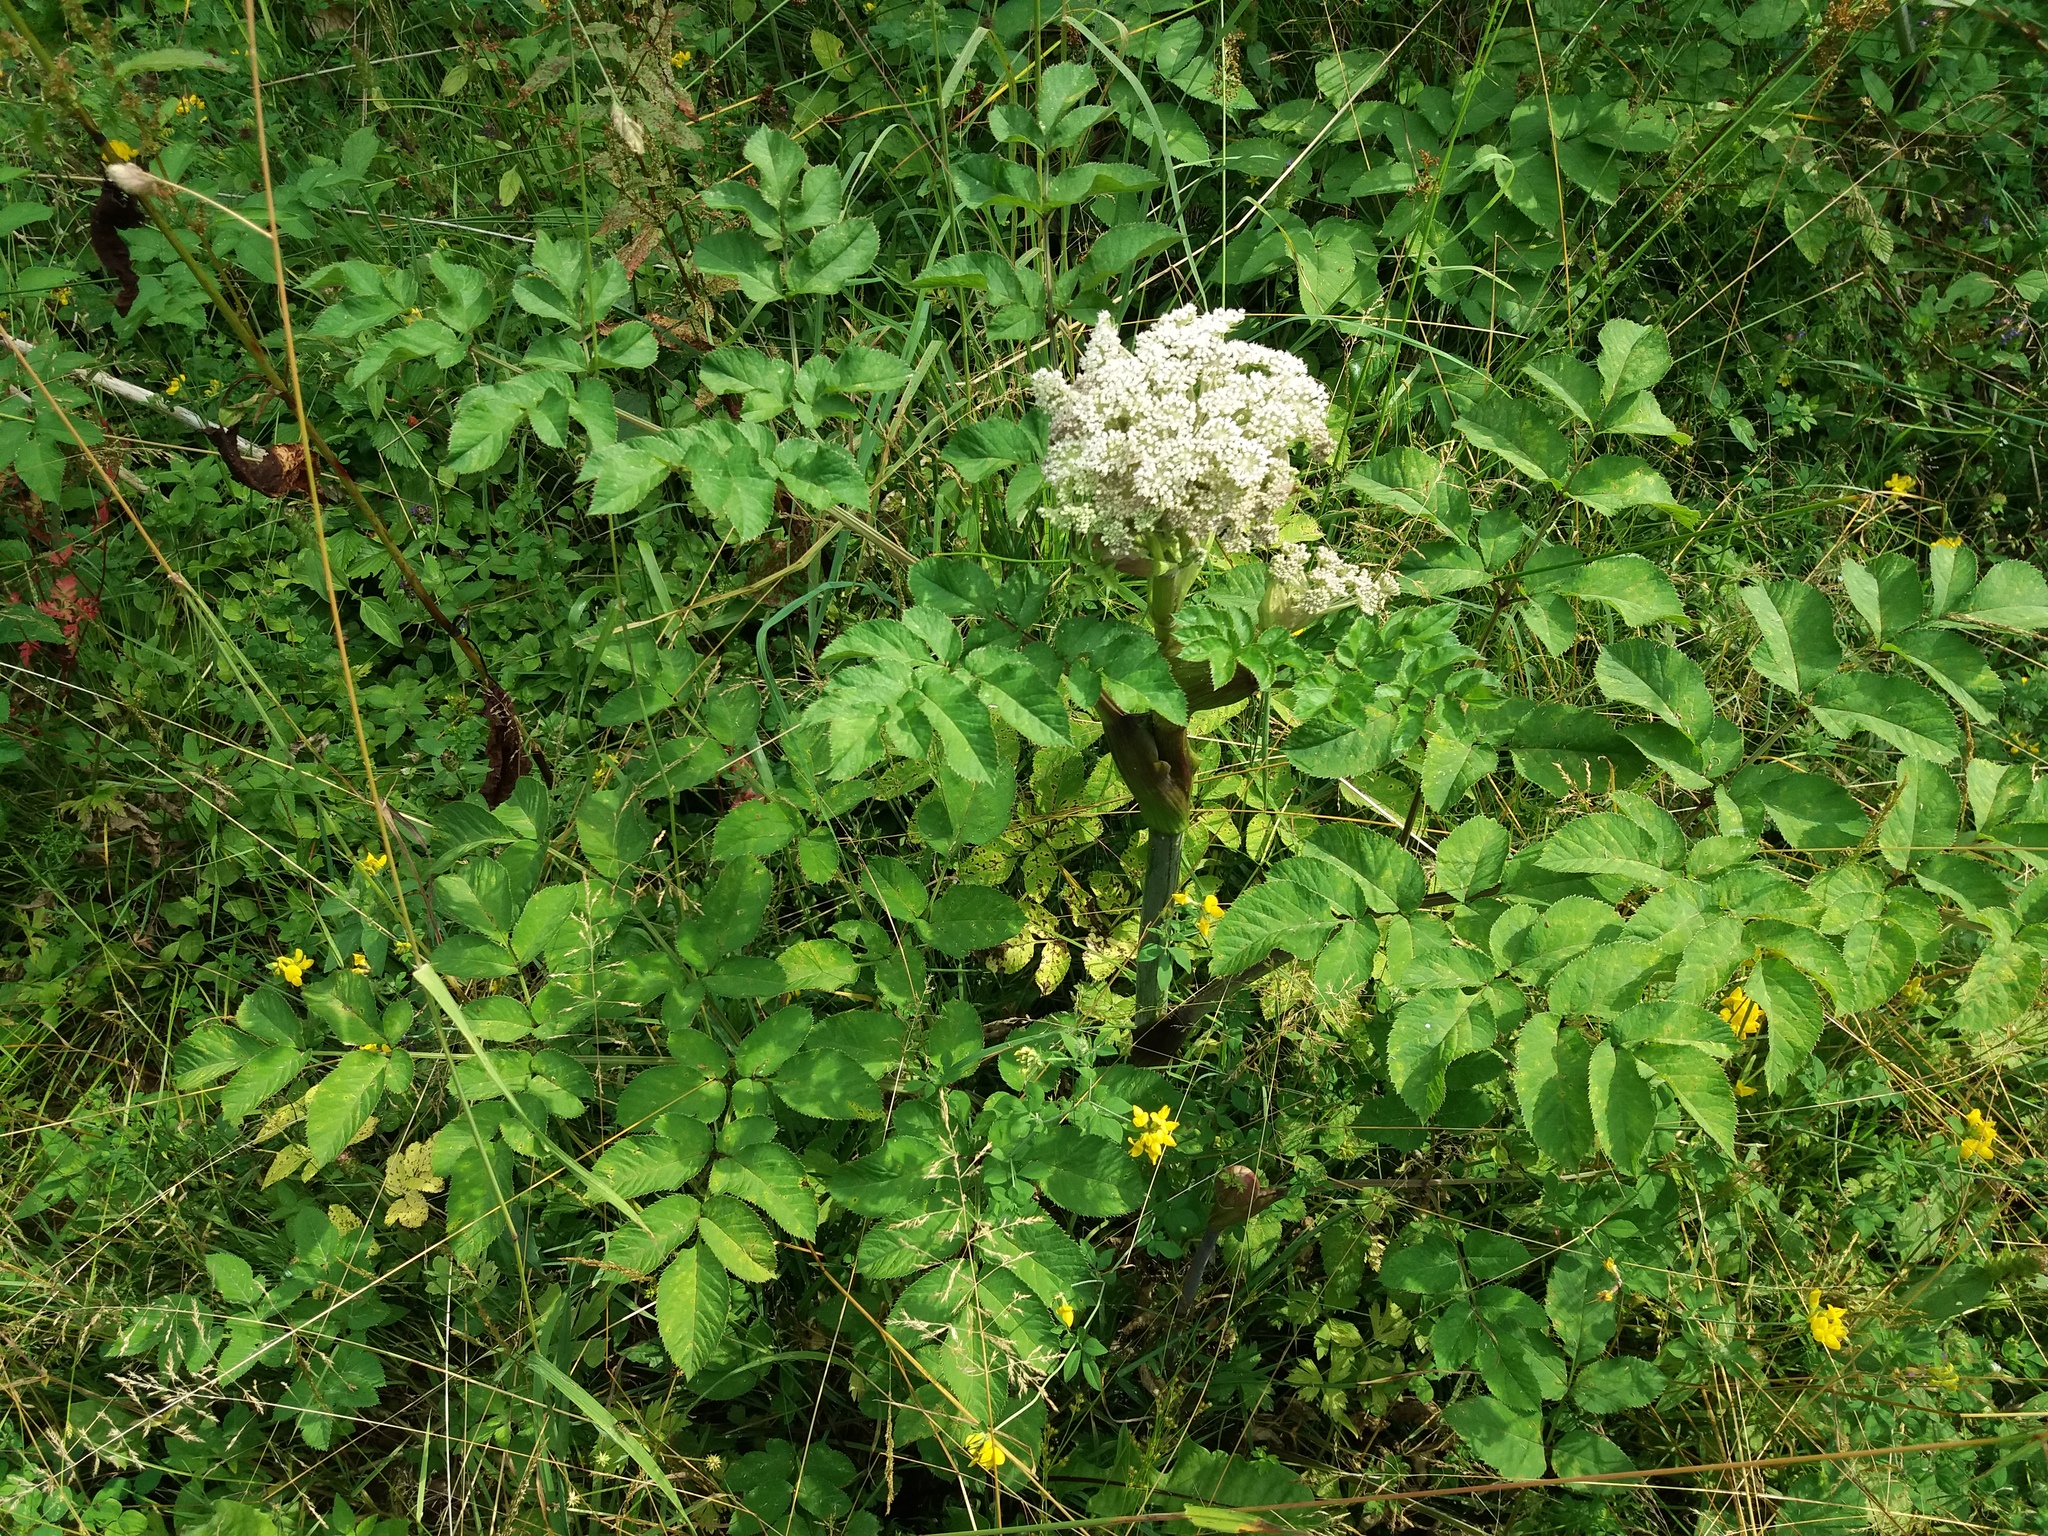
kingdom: Plantae
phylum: Tracheophyta
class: Magnoliopsida
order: Apiales
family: Apiaceae
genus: Angelica
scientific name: Angelica sylvestris
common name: Wild angelica
